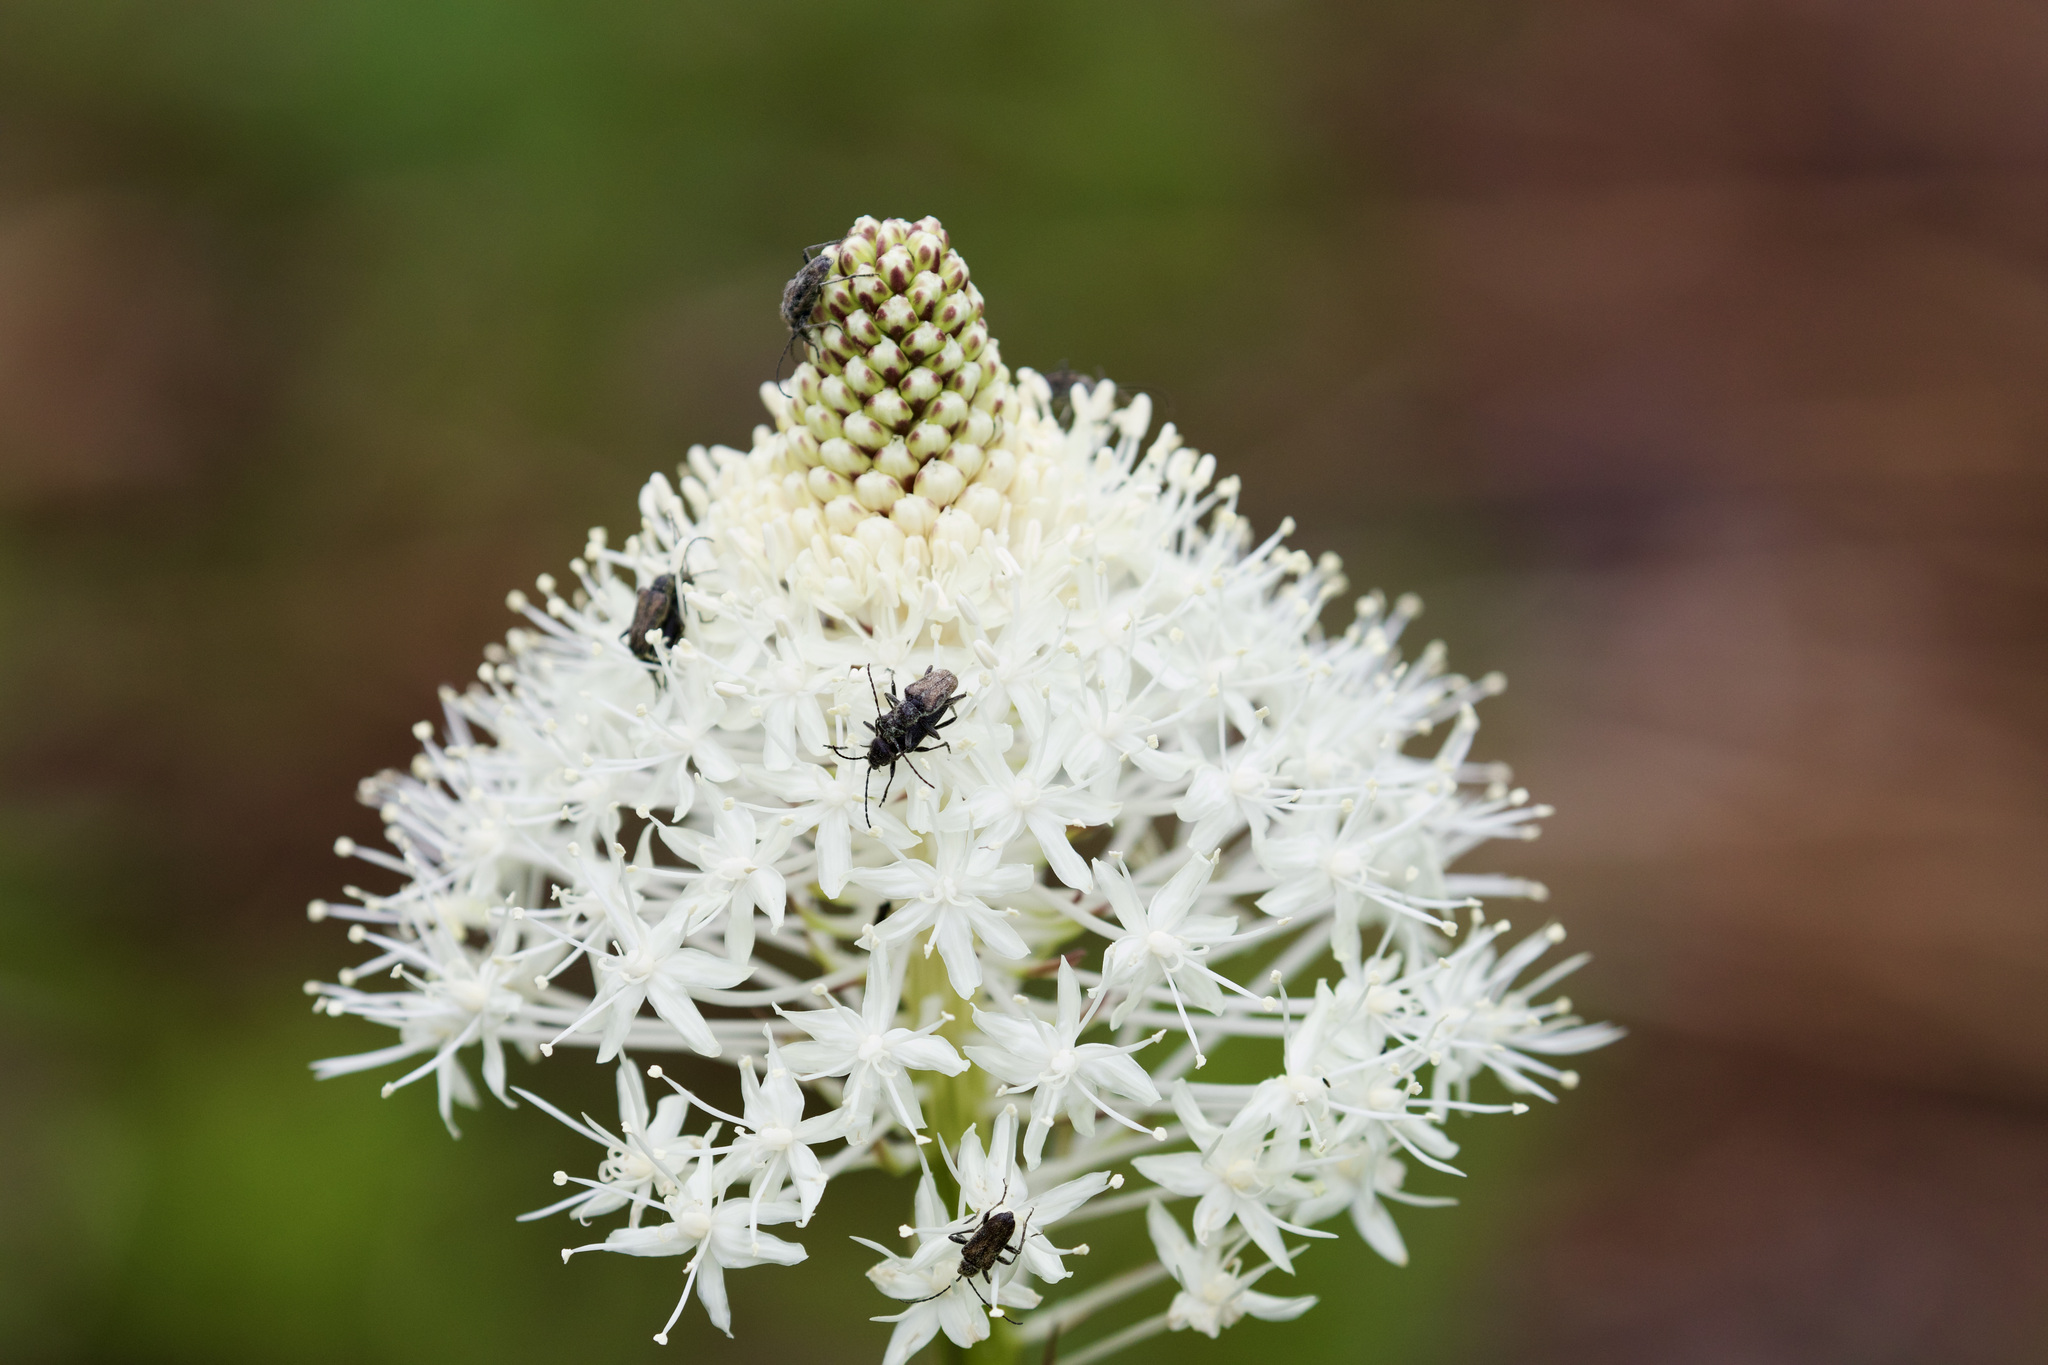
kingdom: Plantae
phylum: Tracheophyta
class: Liliopsida
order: Liliales
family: Melanthiaceae
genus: Xerophyllum
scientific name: Xerophyllum tenax
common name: Bear-grass
